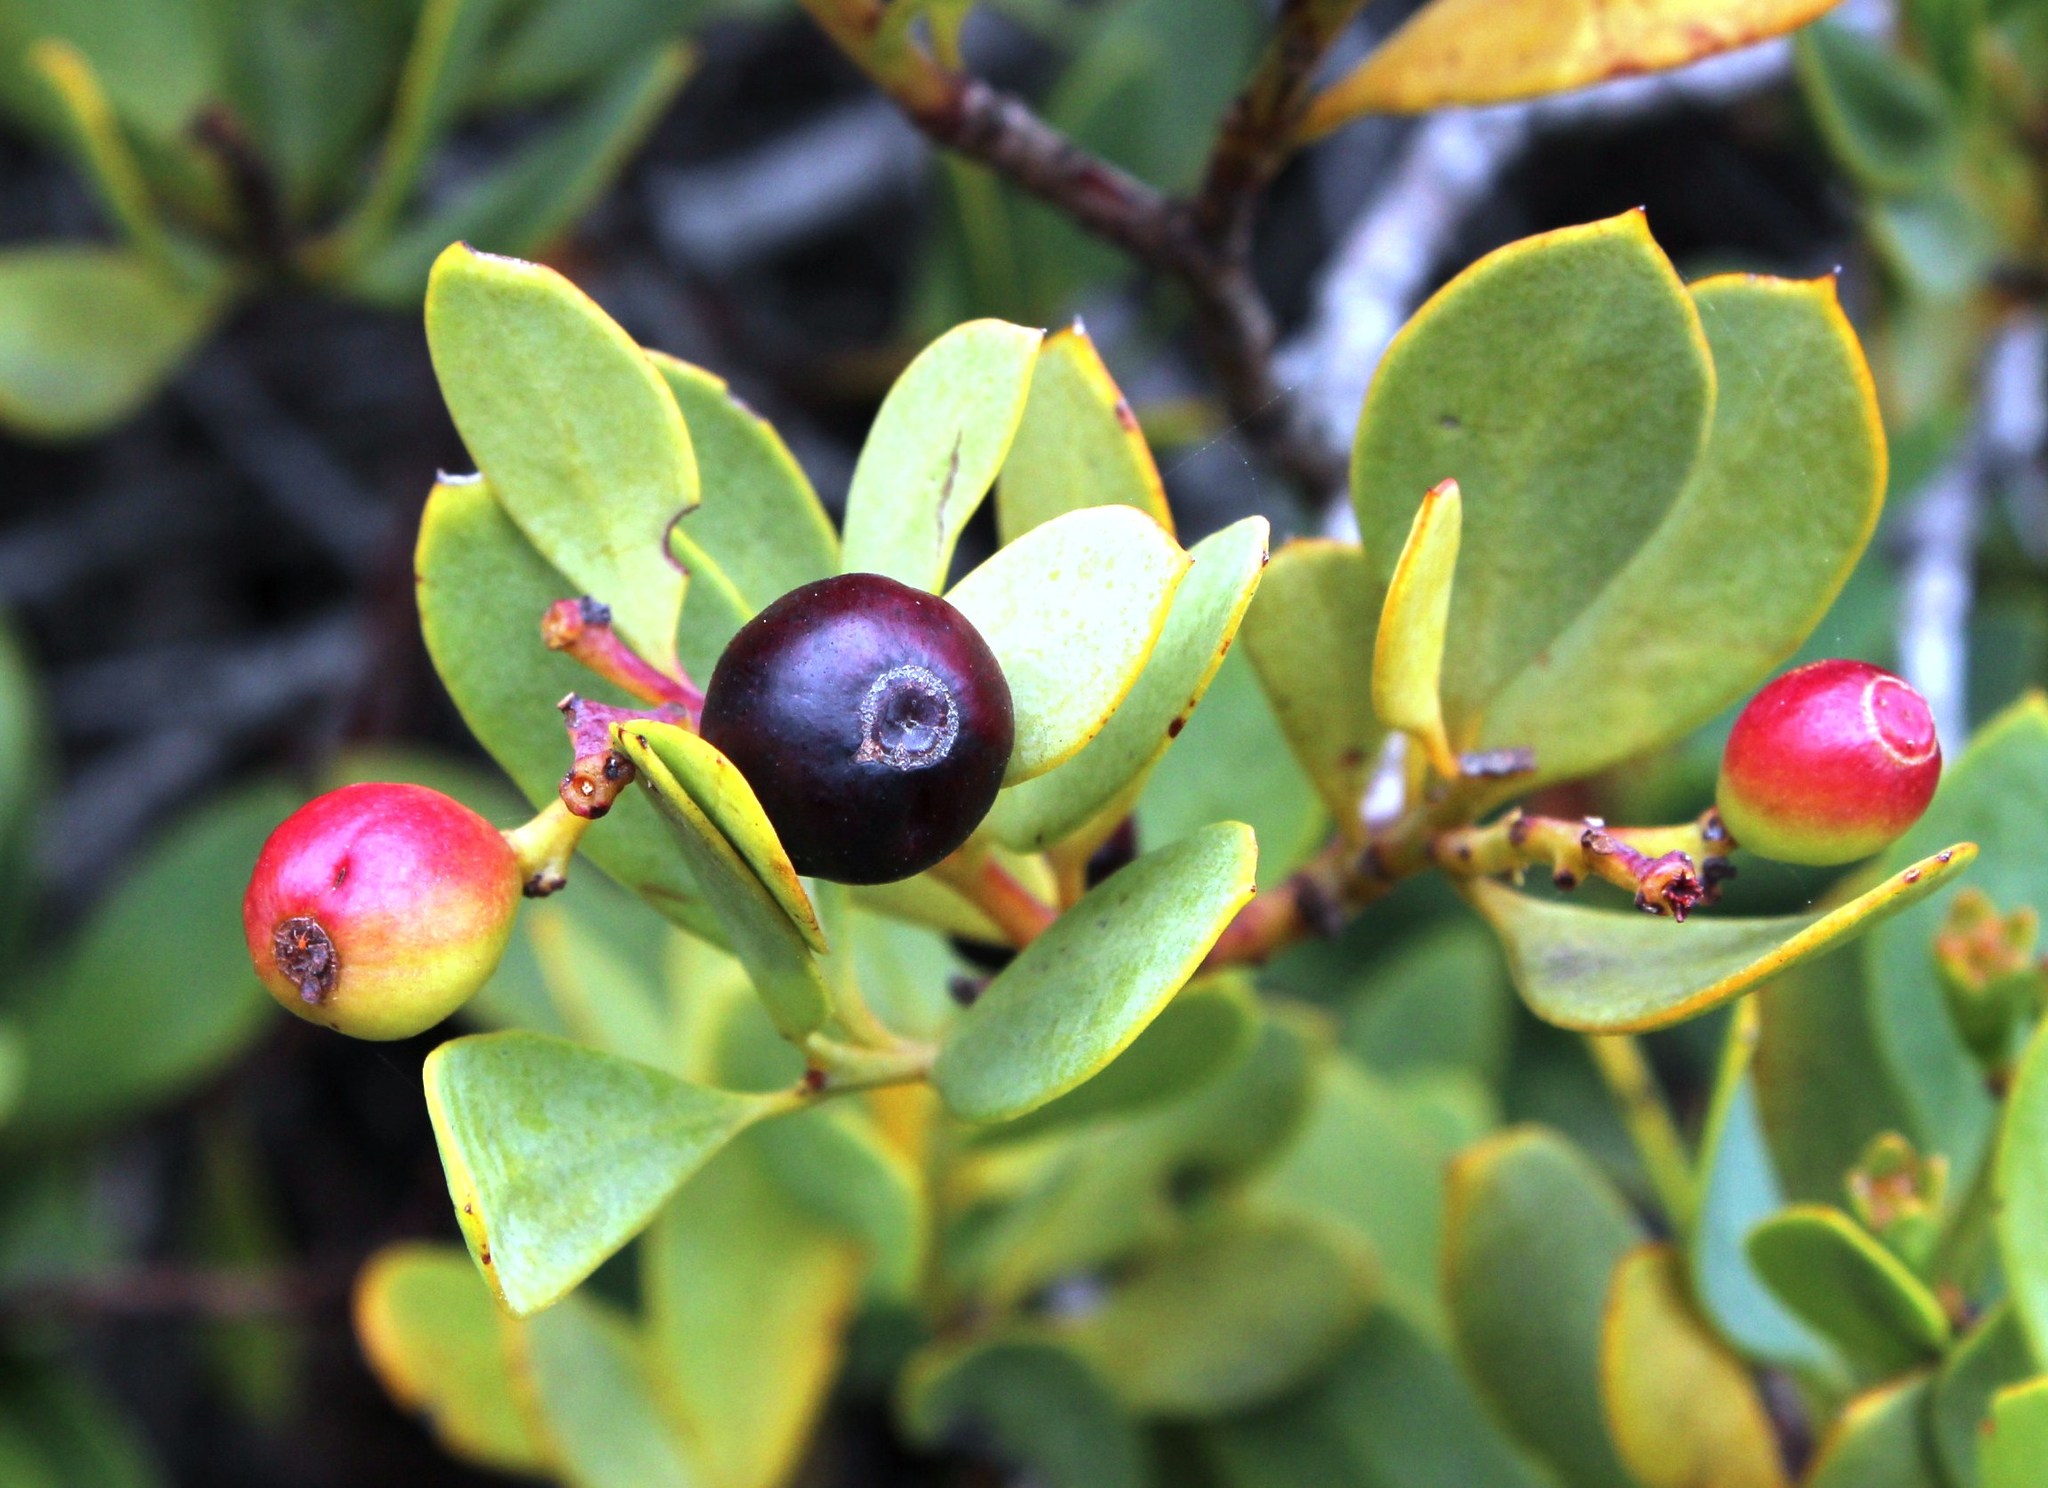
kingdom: Plantae
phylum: Tracheophyta
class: Magnoliopsida
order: Santalales
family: Santalaceae
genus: Osyris
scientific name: Osyris compressa
